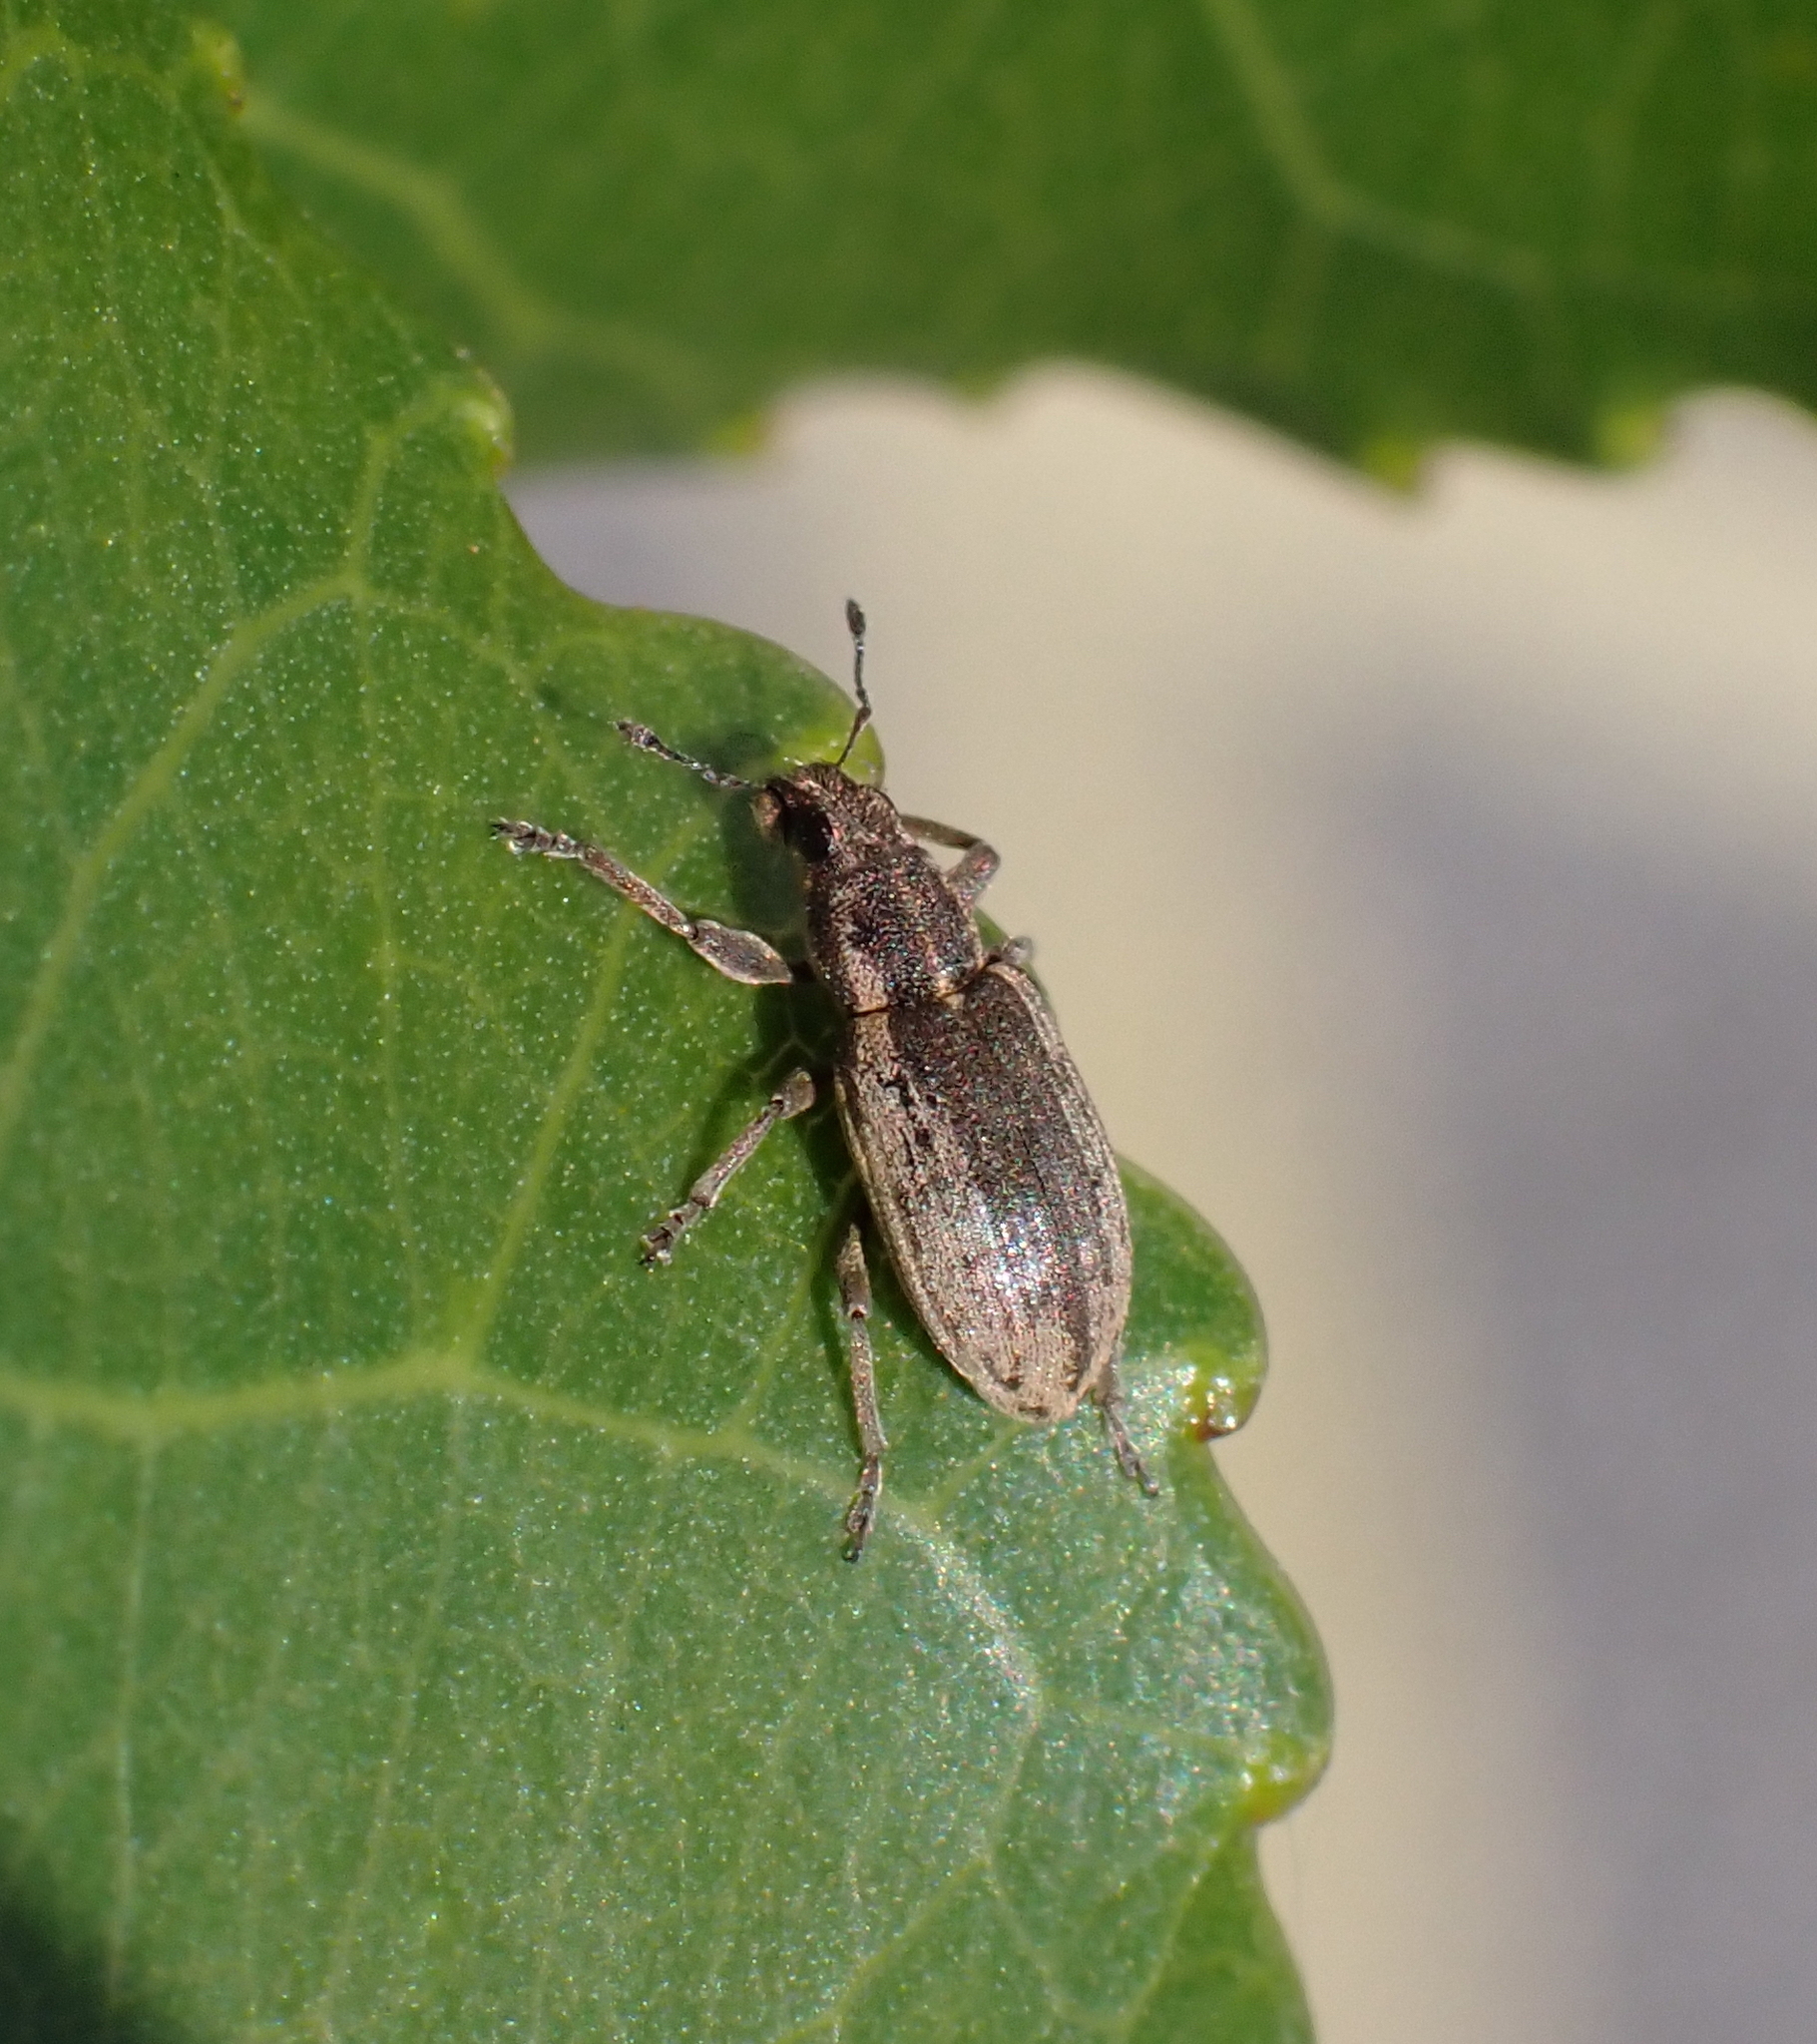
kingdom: Animalia
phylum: Arthropoda
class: Insecta
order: Coleoptera
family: Curculionidae
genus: Sitona
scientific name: Sitona humeralis
